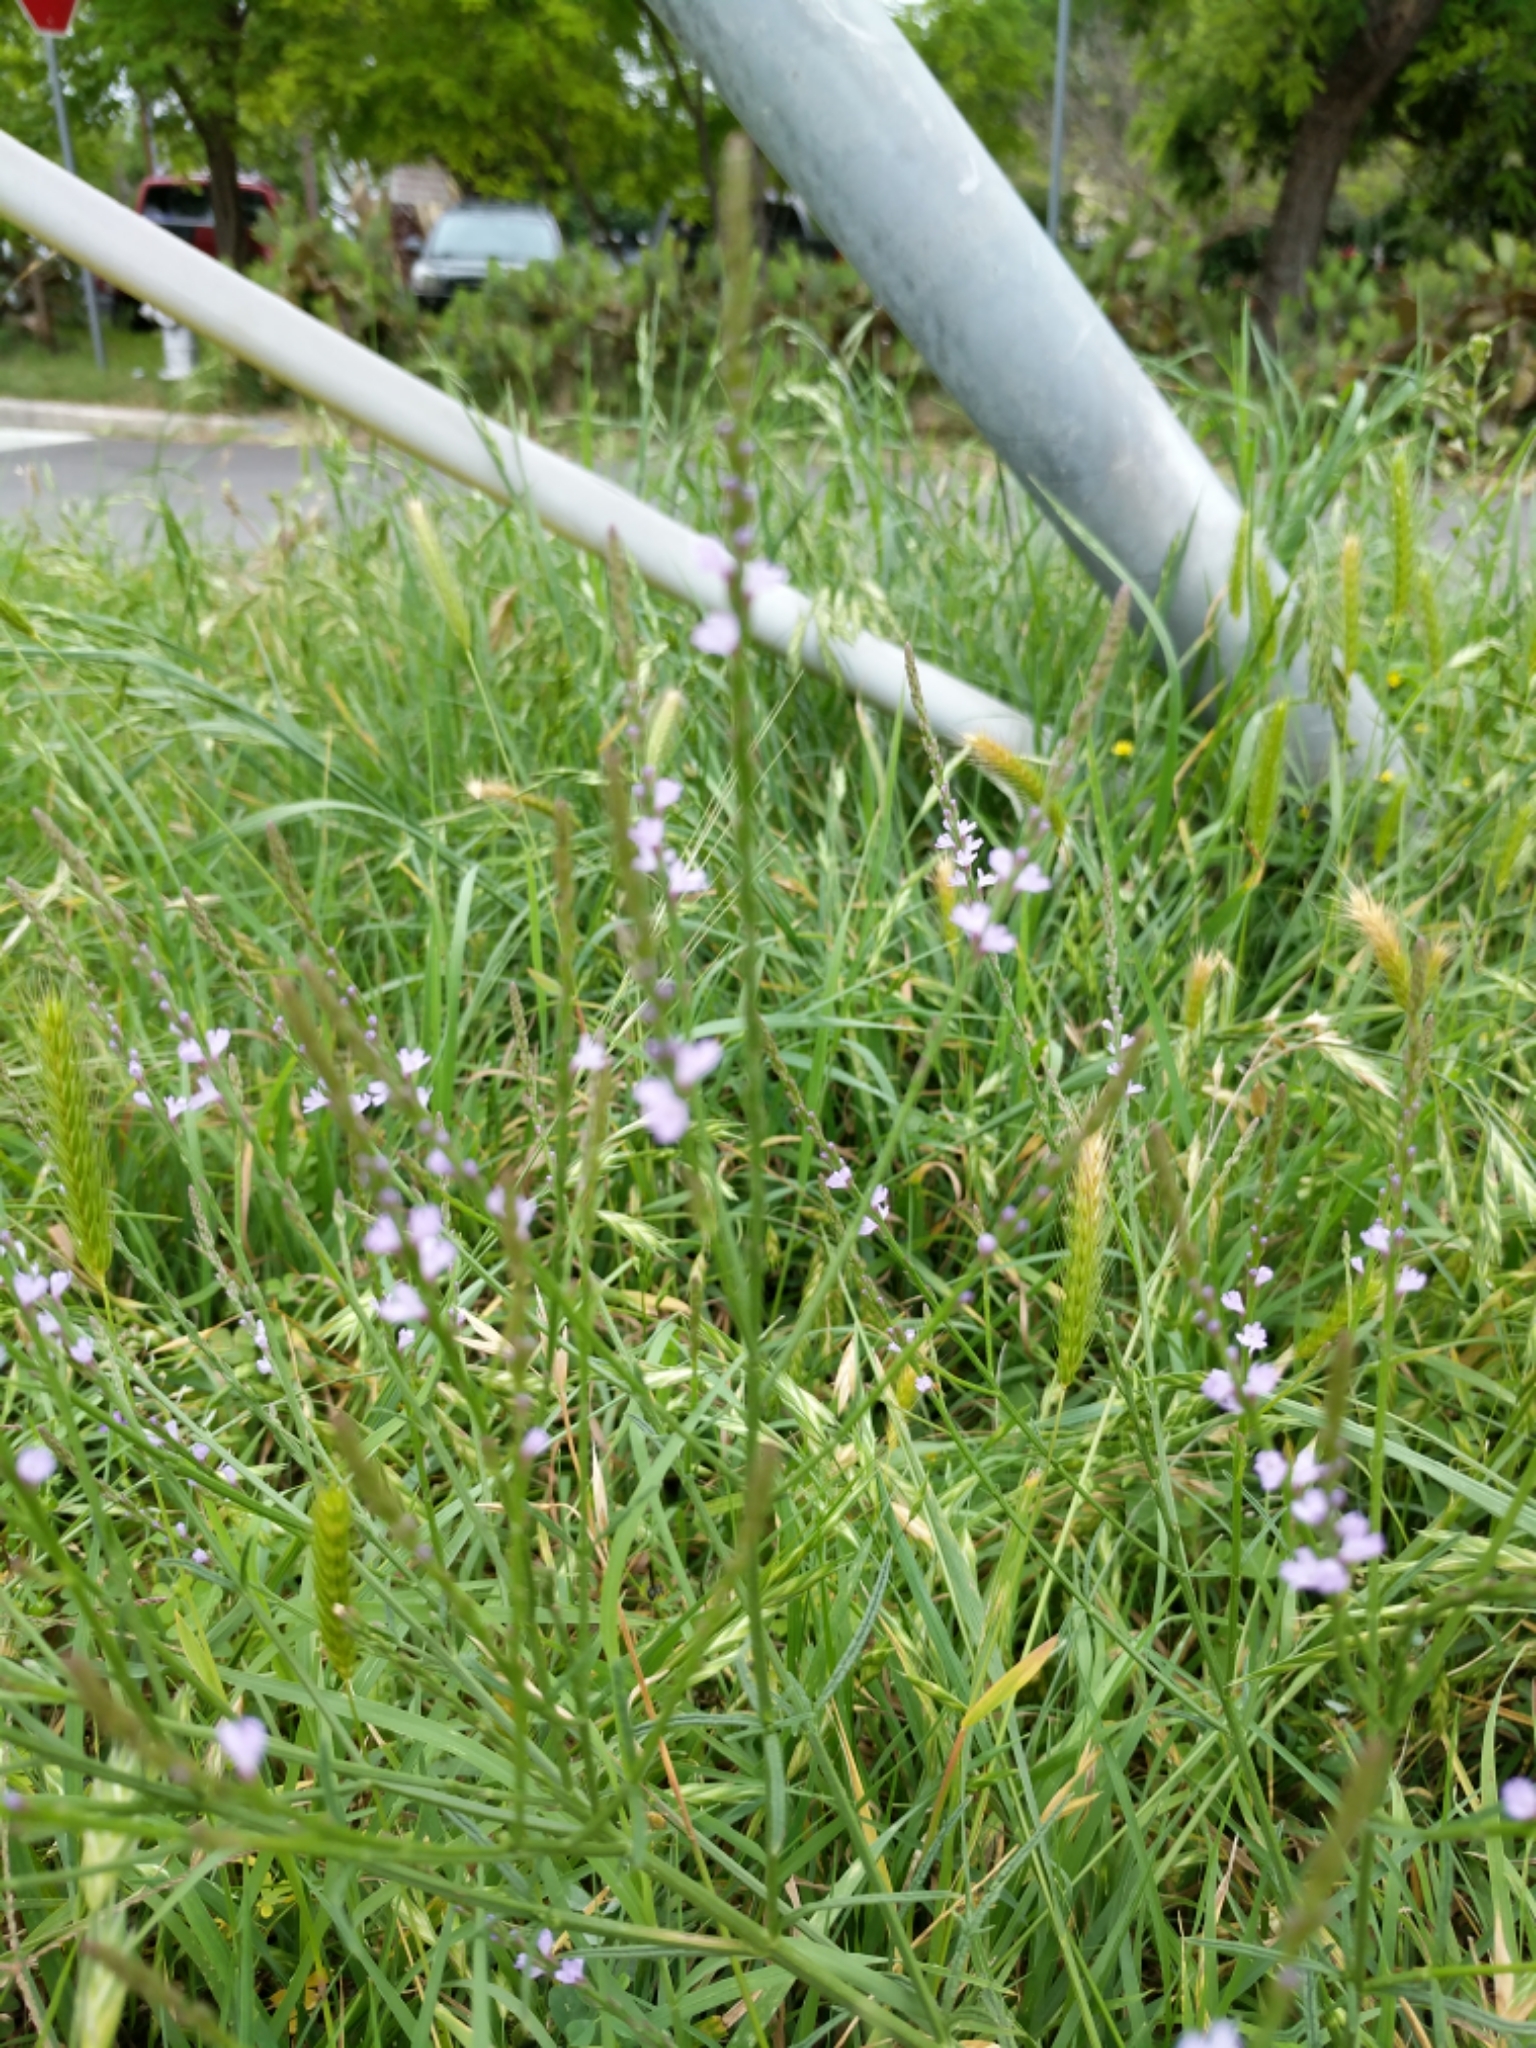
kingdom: Plantae
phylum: Tracheophyta
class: Magnoliopsida
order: Lamiales
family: Verbenaceae
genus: Verbena
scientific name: Verbena halei
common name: Texas vervain
